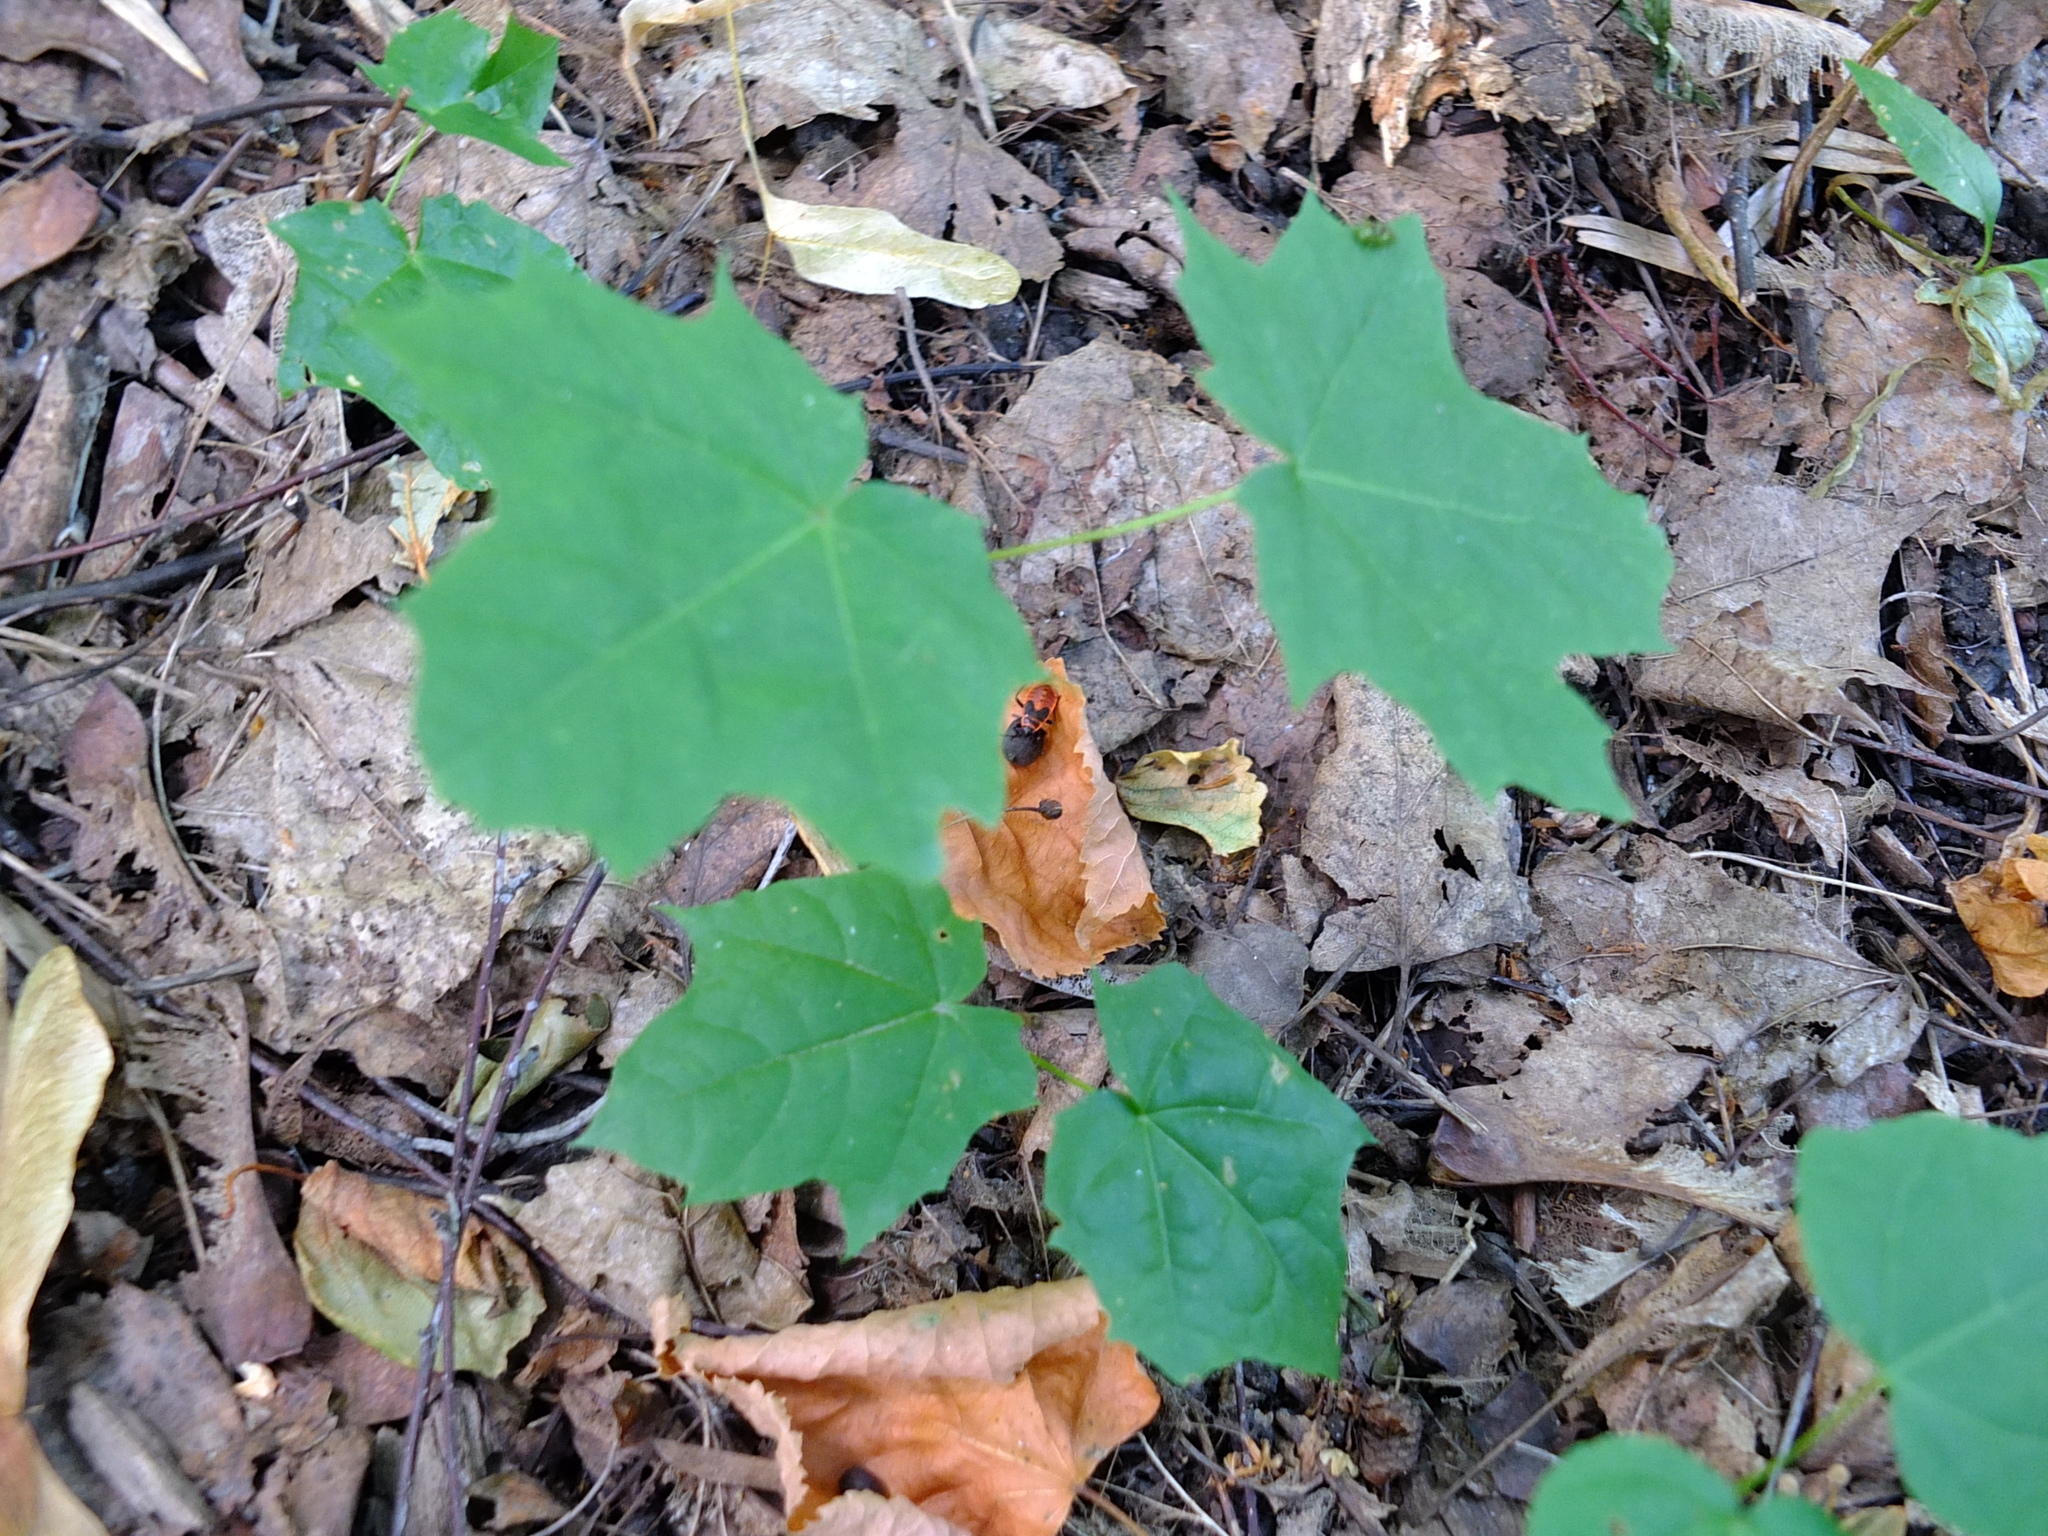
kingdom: Animalia
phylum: Arthropoda
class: Insecta
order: Hemiptera
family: Pyrrhocoridae
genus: Pyrrhocoris
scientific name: Pyrrhocoris apterus
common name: Firebug
